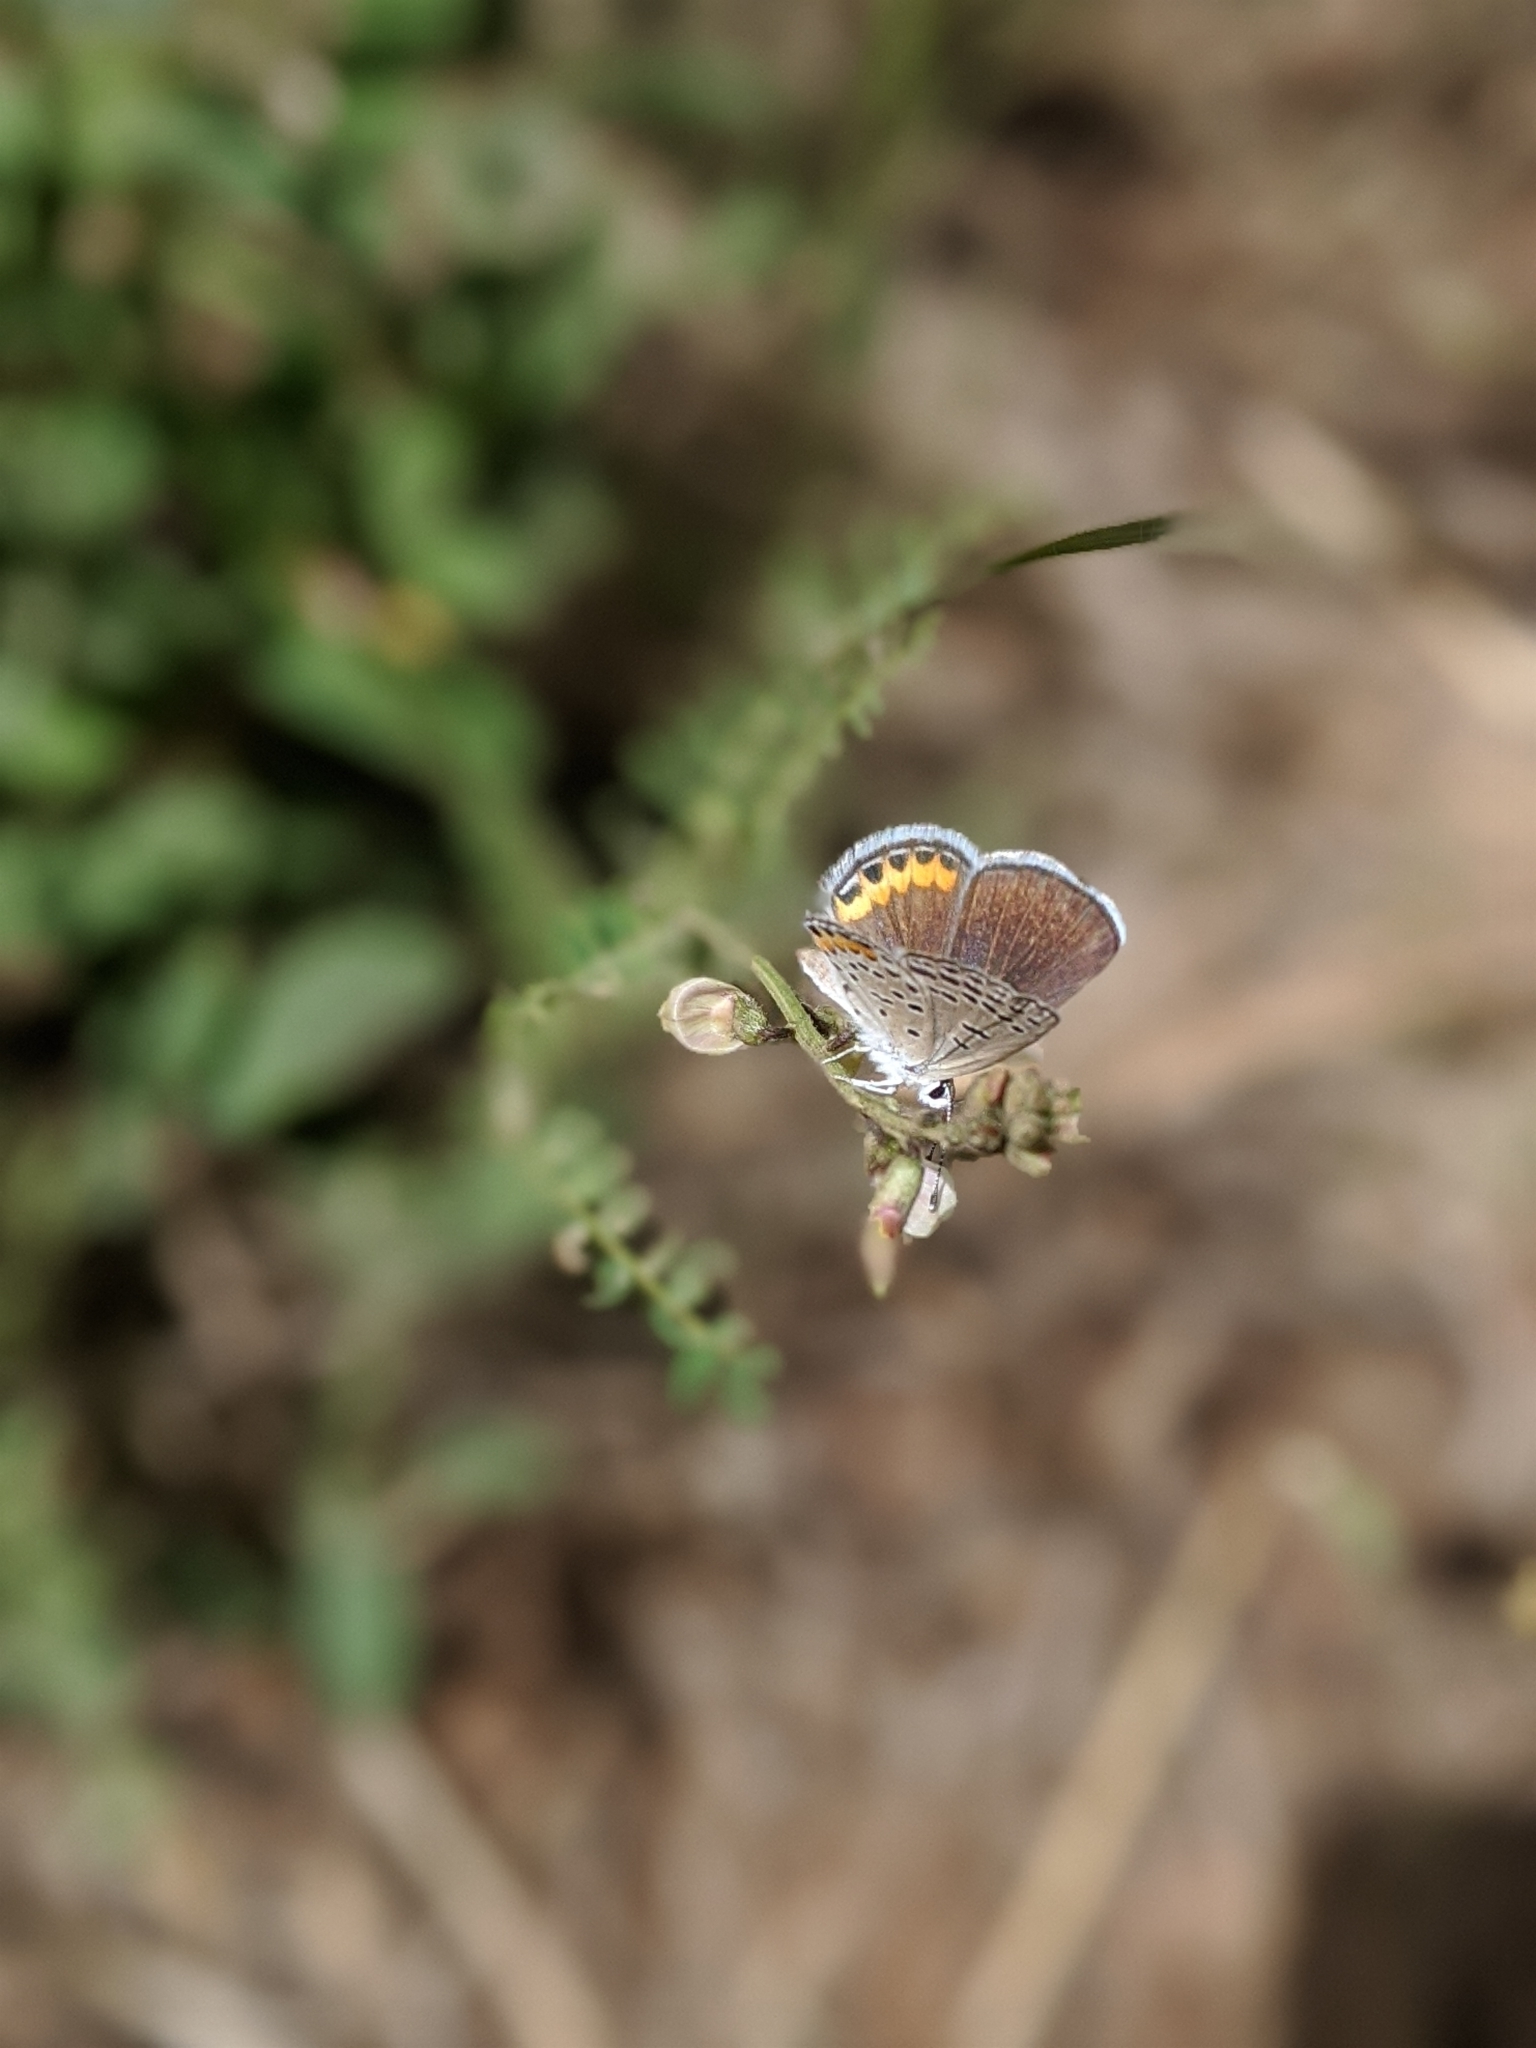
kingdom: Animalia
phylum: Arthropoda
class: Insecta
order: Lepidoptera
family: Lycaenidae
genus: Icaricia
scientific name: Icaricia lupini
